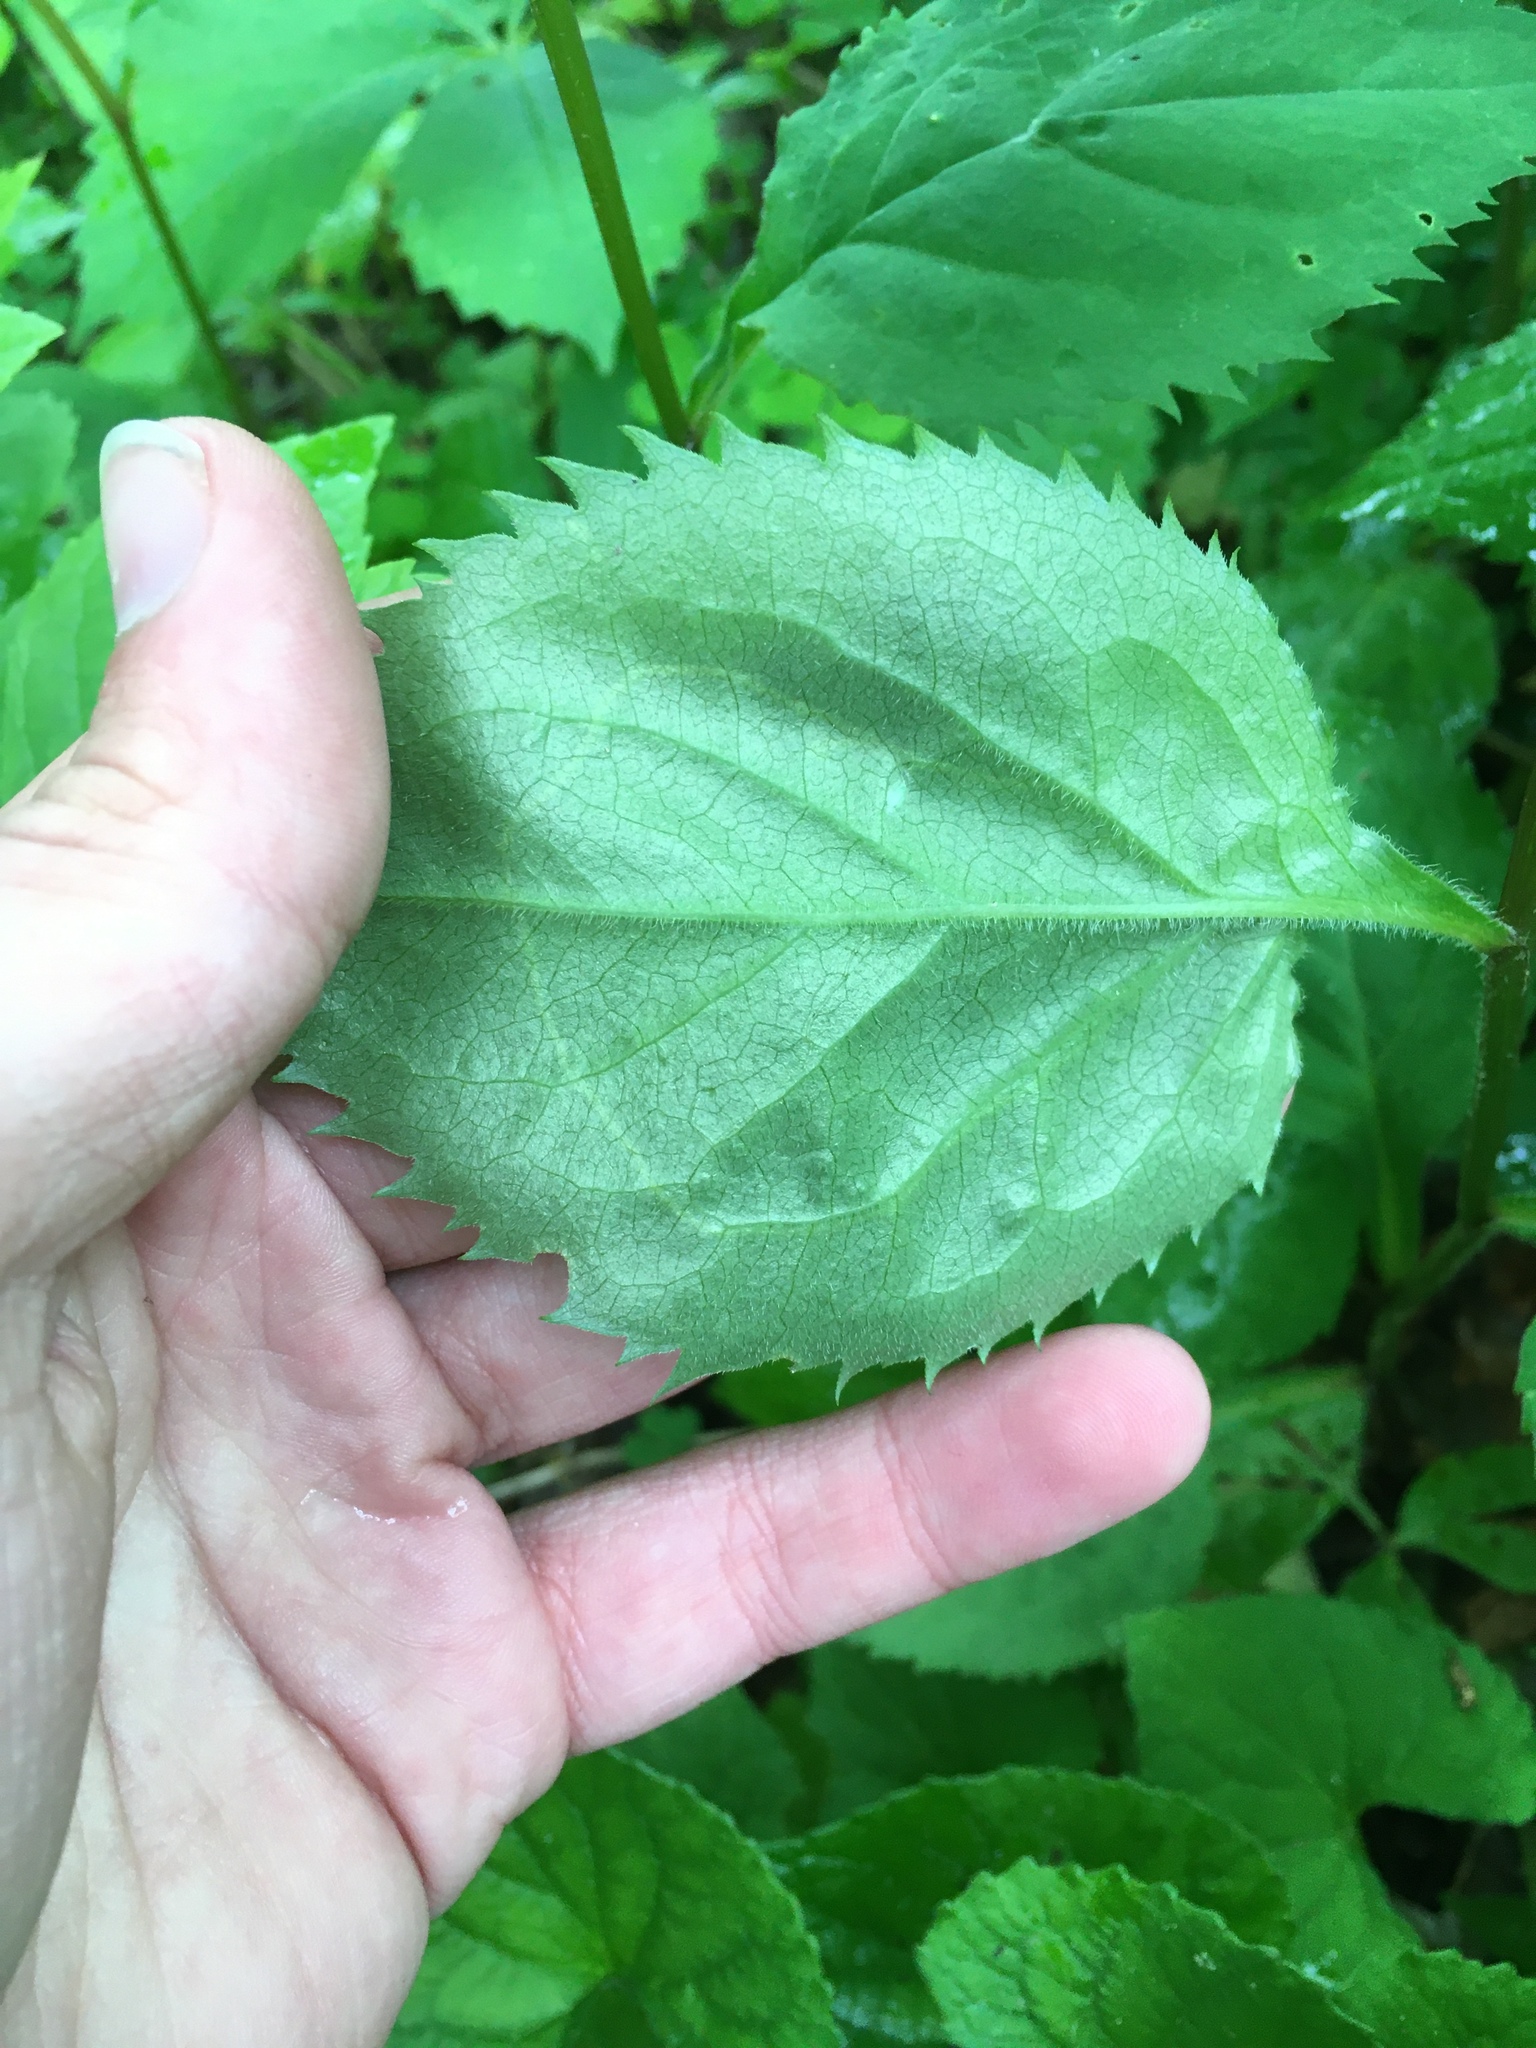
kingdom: Animalia
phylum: Arthropoda
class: Insecta
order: Diptera
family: Agromyzidae
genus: Ophiomyia
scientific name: Ophiomyia maura
